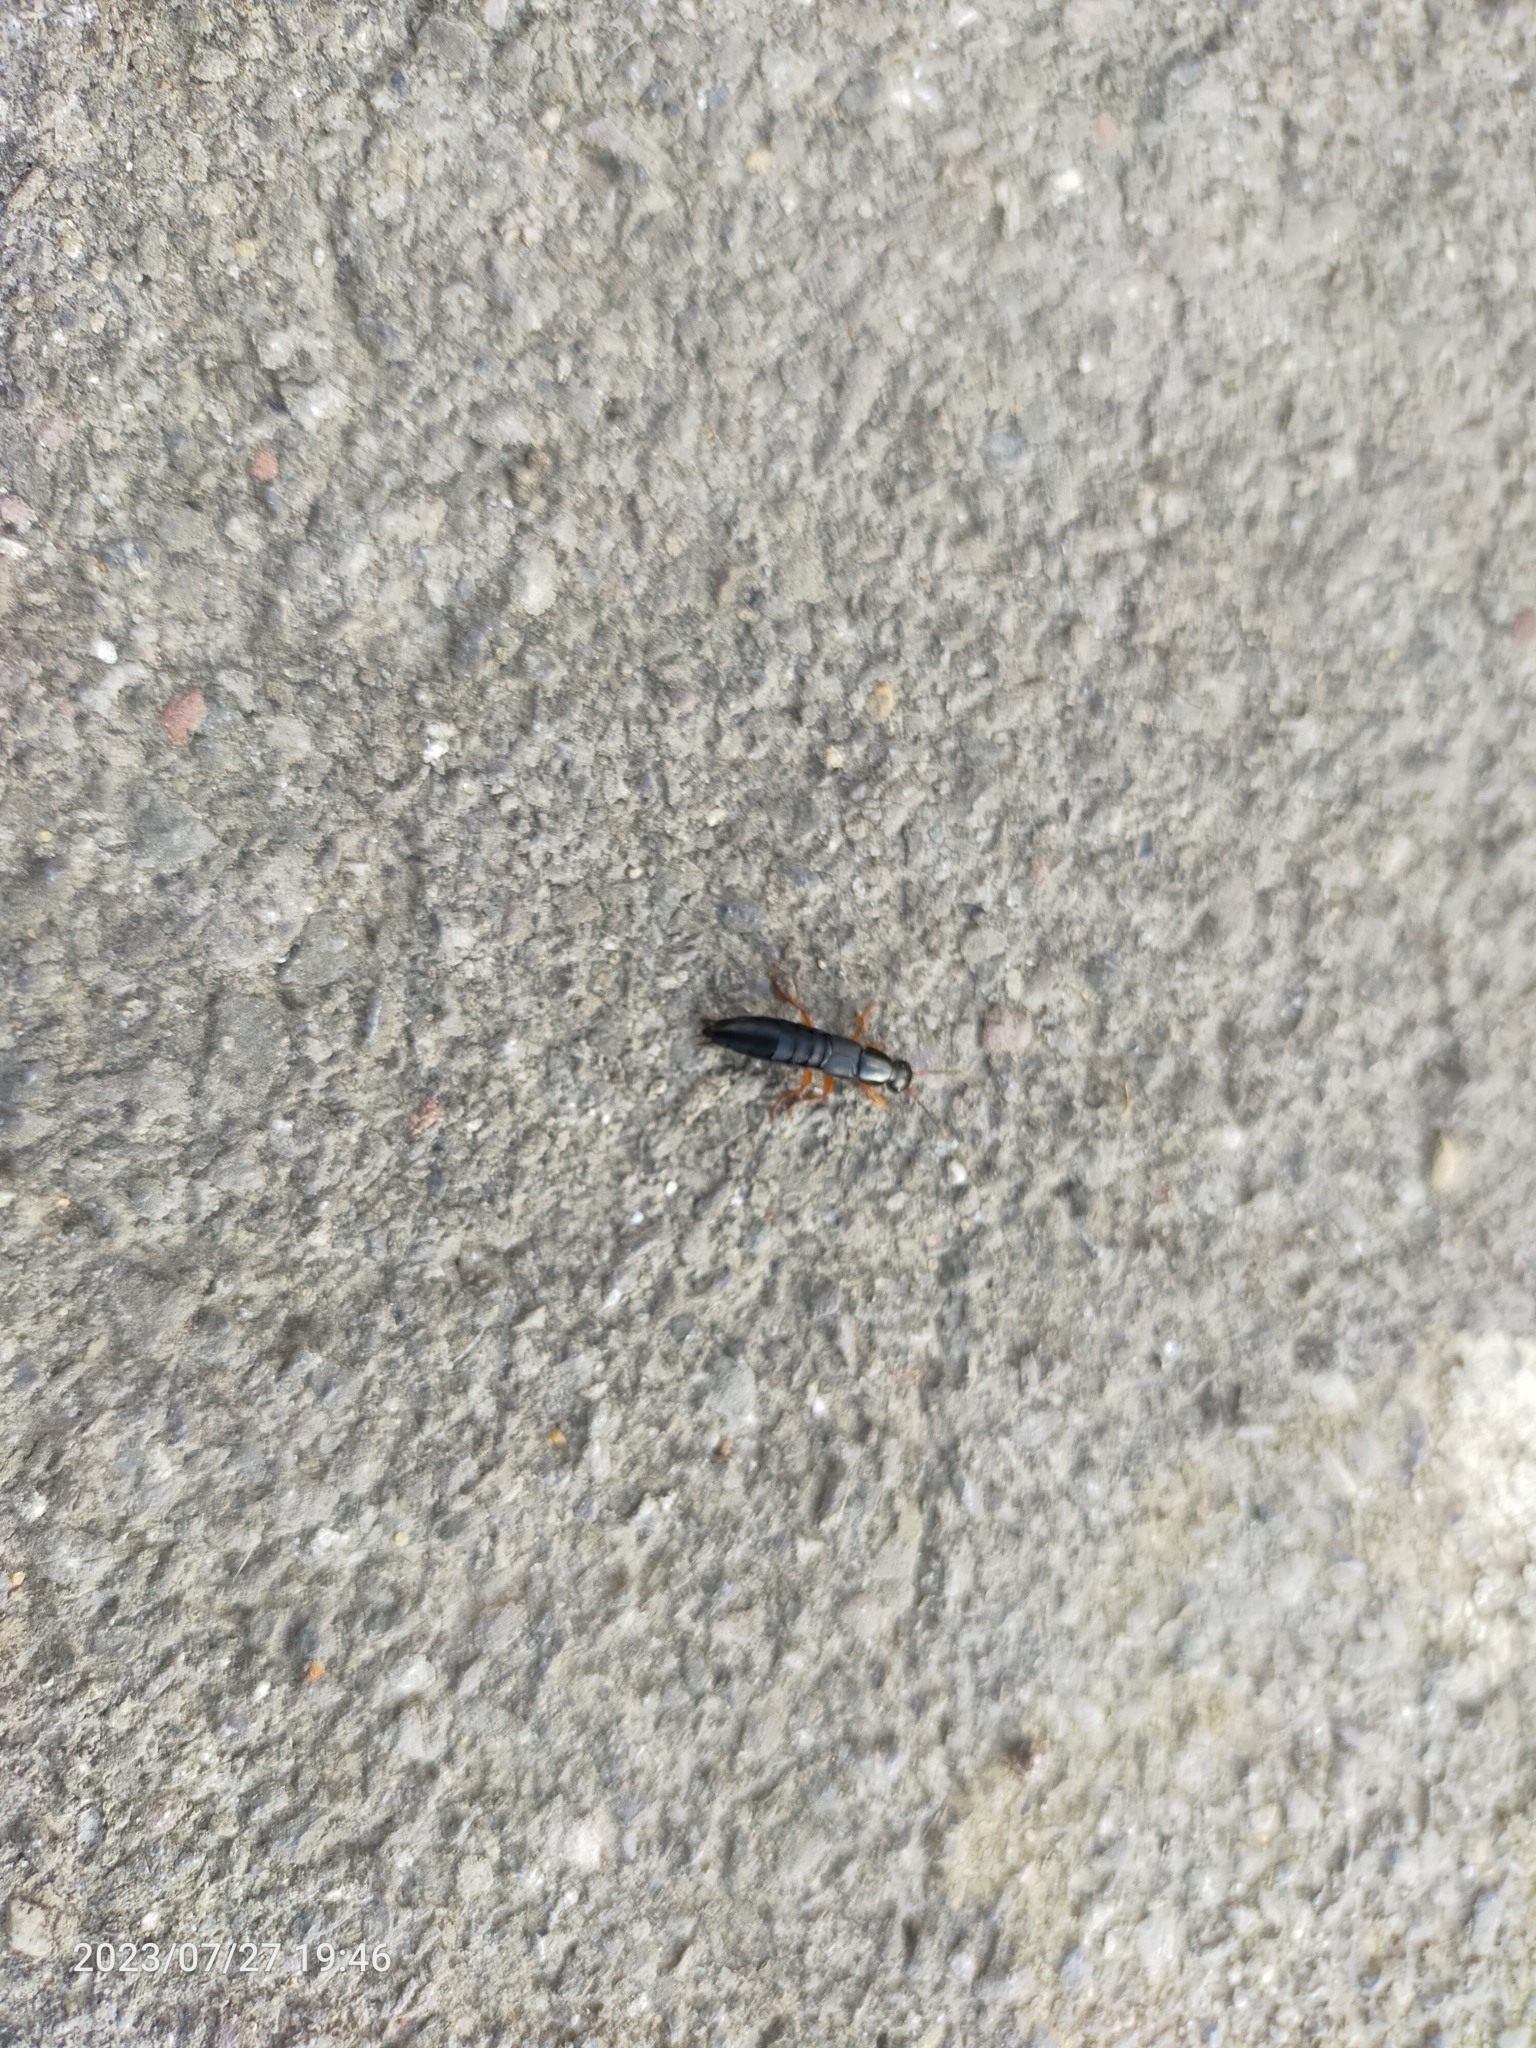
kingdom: Animalia
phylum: Arthropoda
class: Insecta
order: Coleoptera
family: Staphylinidae
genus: Ocypus
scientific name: Ocypus brunnipes
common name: Rove beetle
